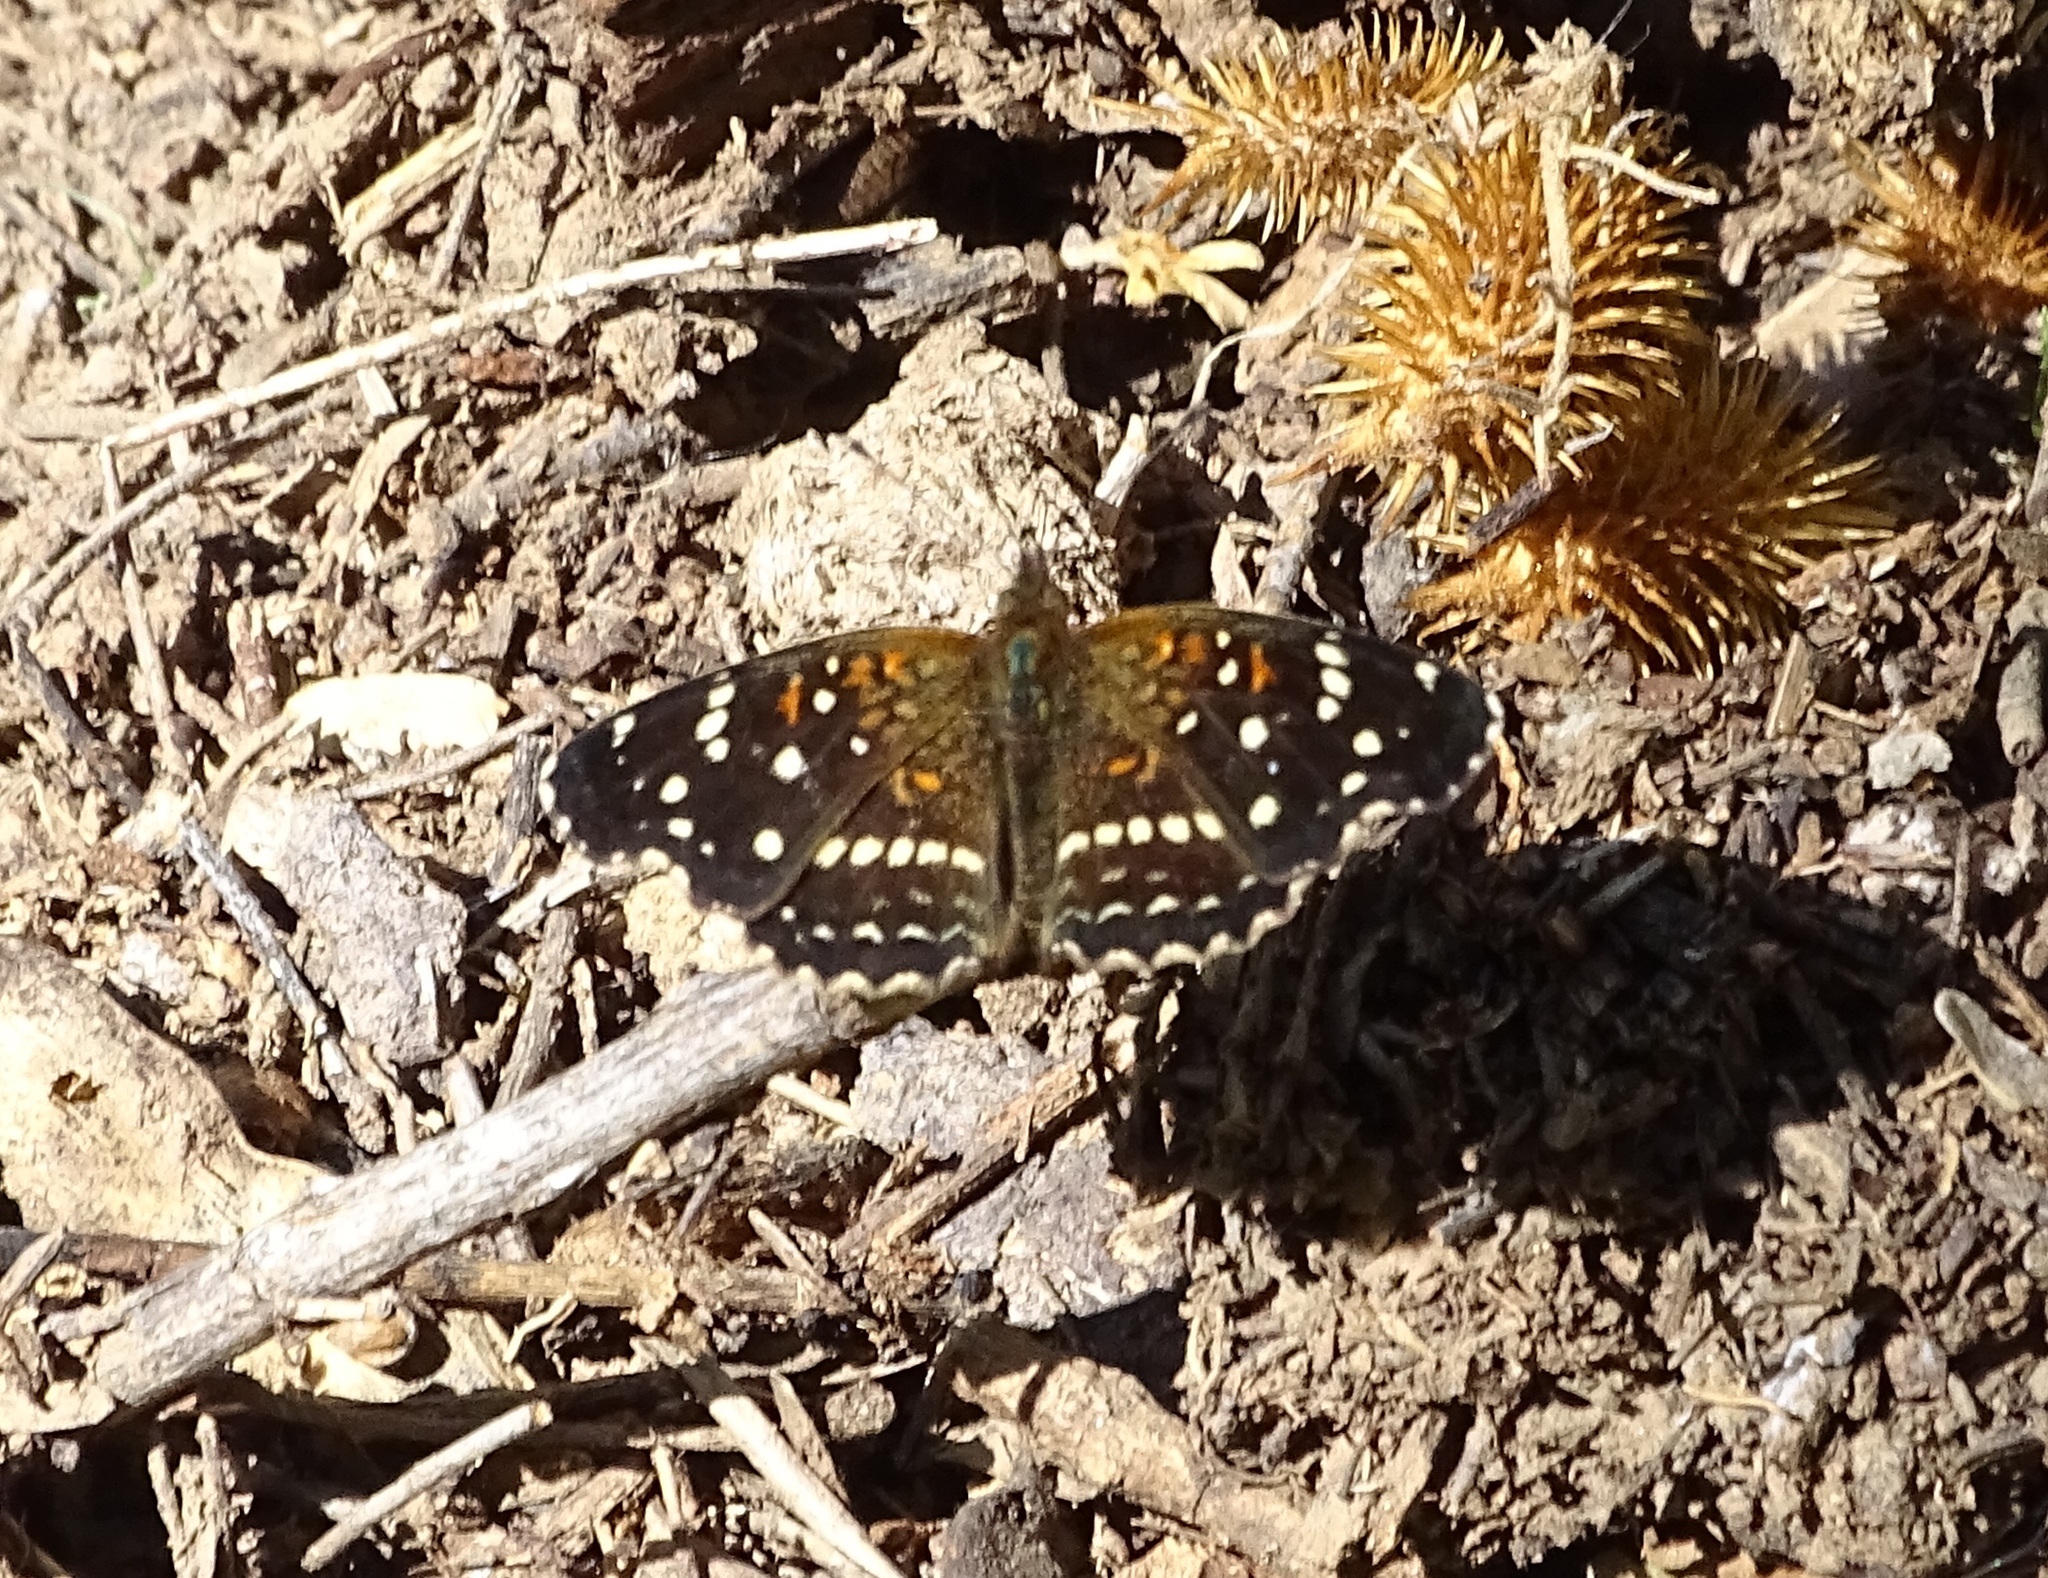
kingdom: Animalia
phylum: Arthropoda
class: Insecta
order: Lepidoptera
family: Nymphalidae
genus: Anthanassa
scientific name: Anthanassa texana
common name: Texan crescent
